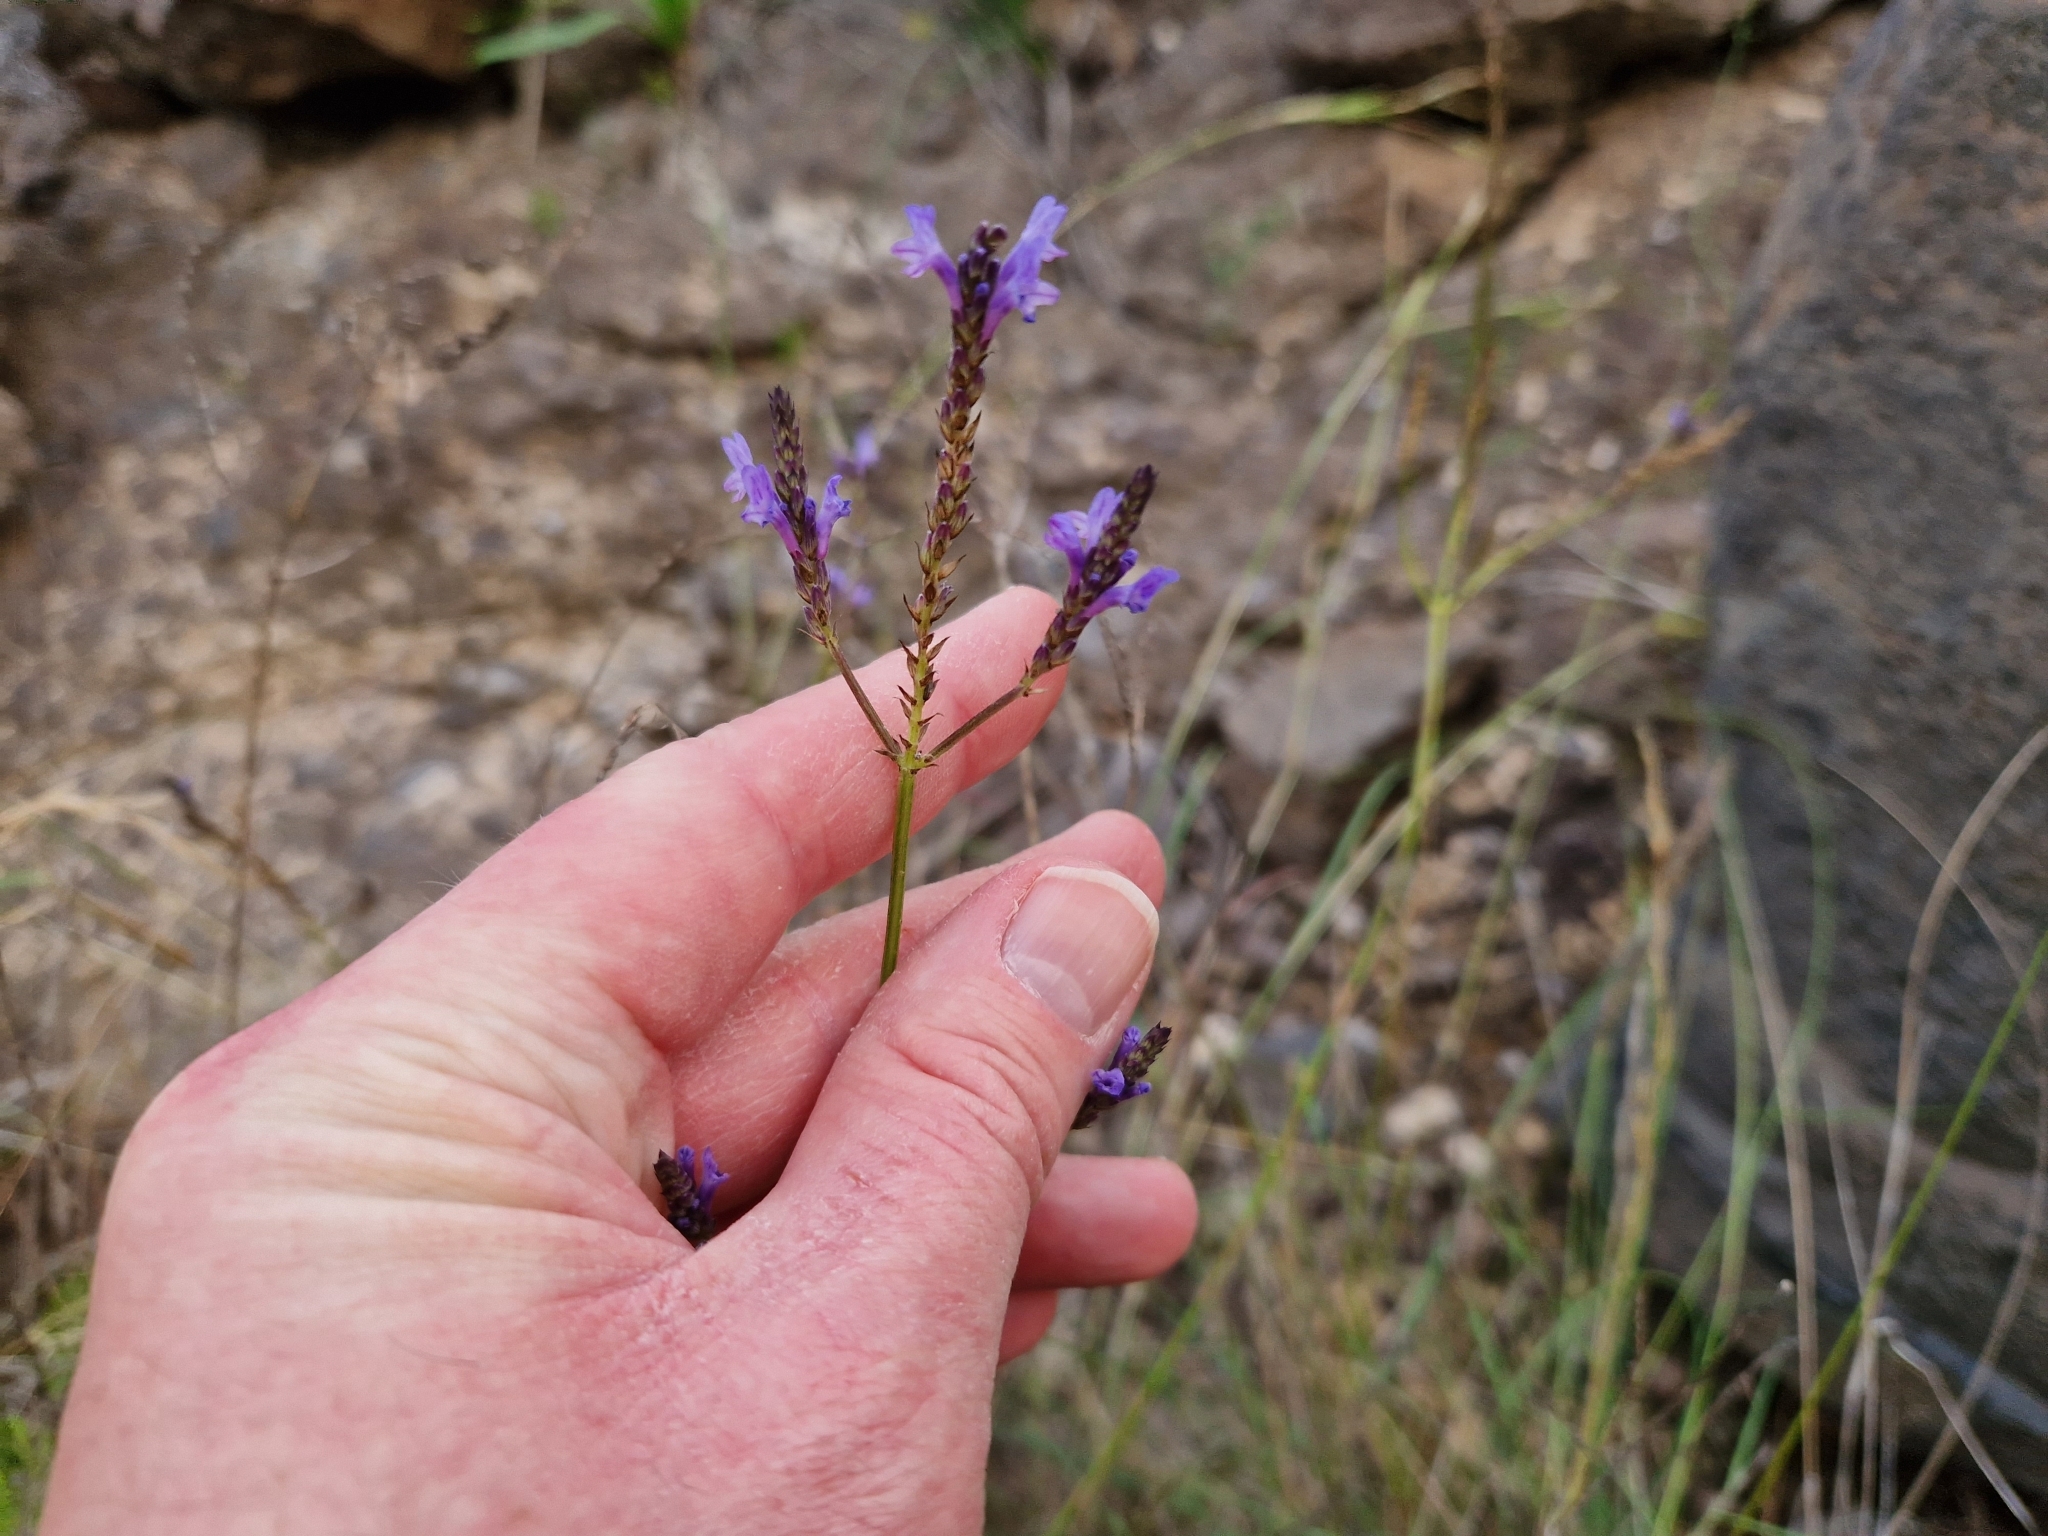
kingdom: Plantae
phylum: Tracheophyta
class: Magnoliopsida
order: Lamiales
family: Lamiaceae
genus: Lavandula
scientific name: Lavandula canariensis
